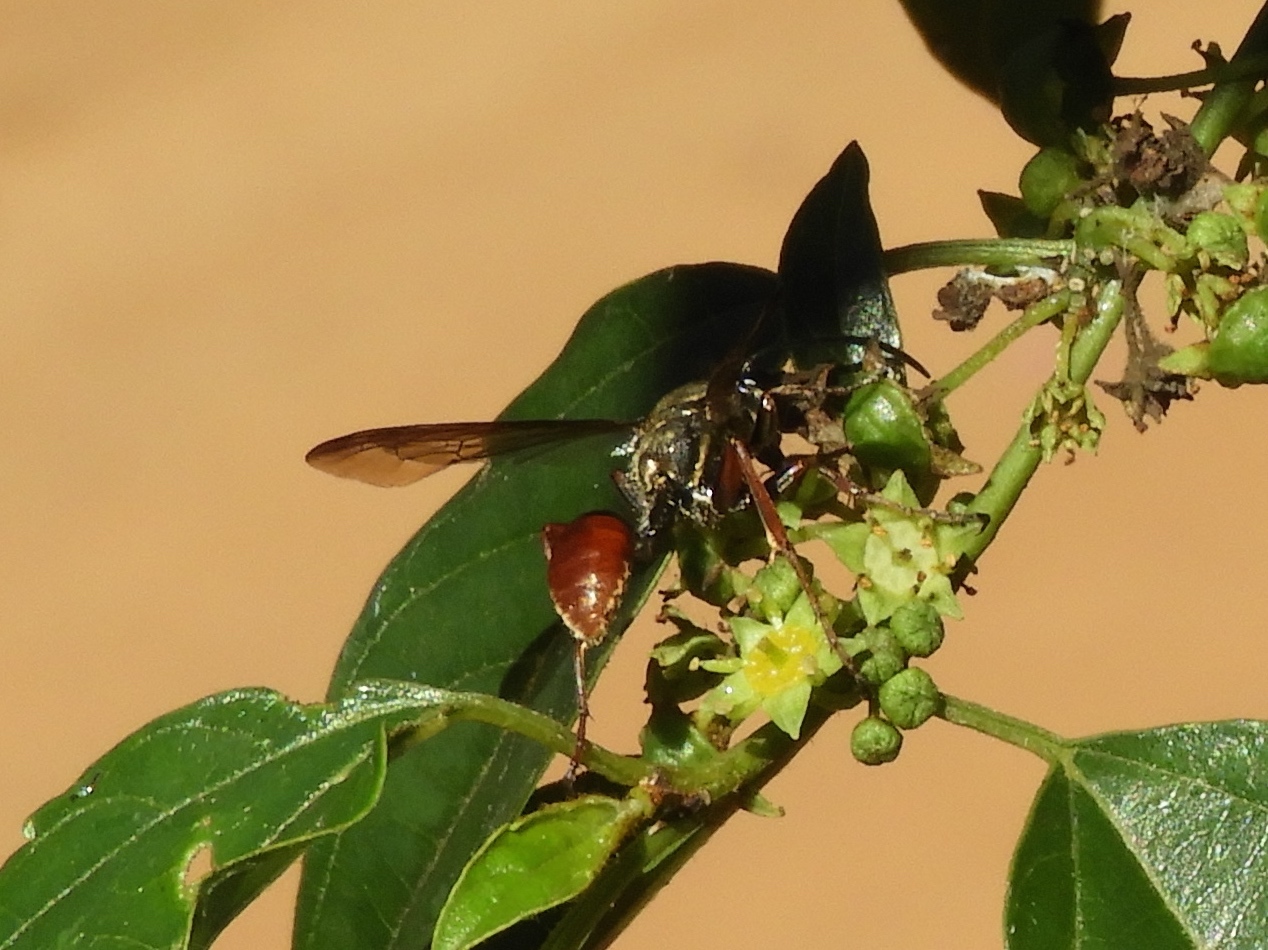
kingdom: Animalia
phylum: Arthropoda
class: Insecta
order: Hymenoptera
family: Sphecidae
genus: Isodontia
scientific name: Isodontia
